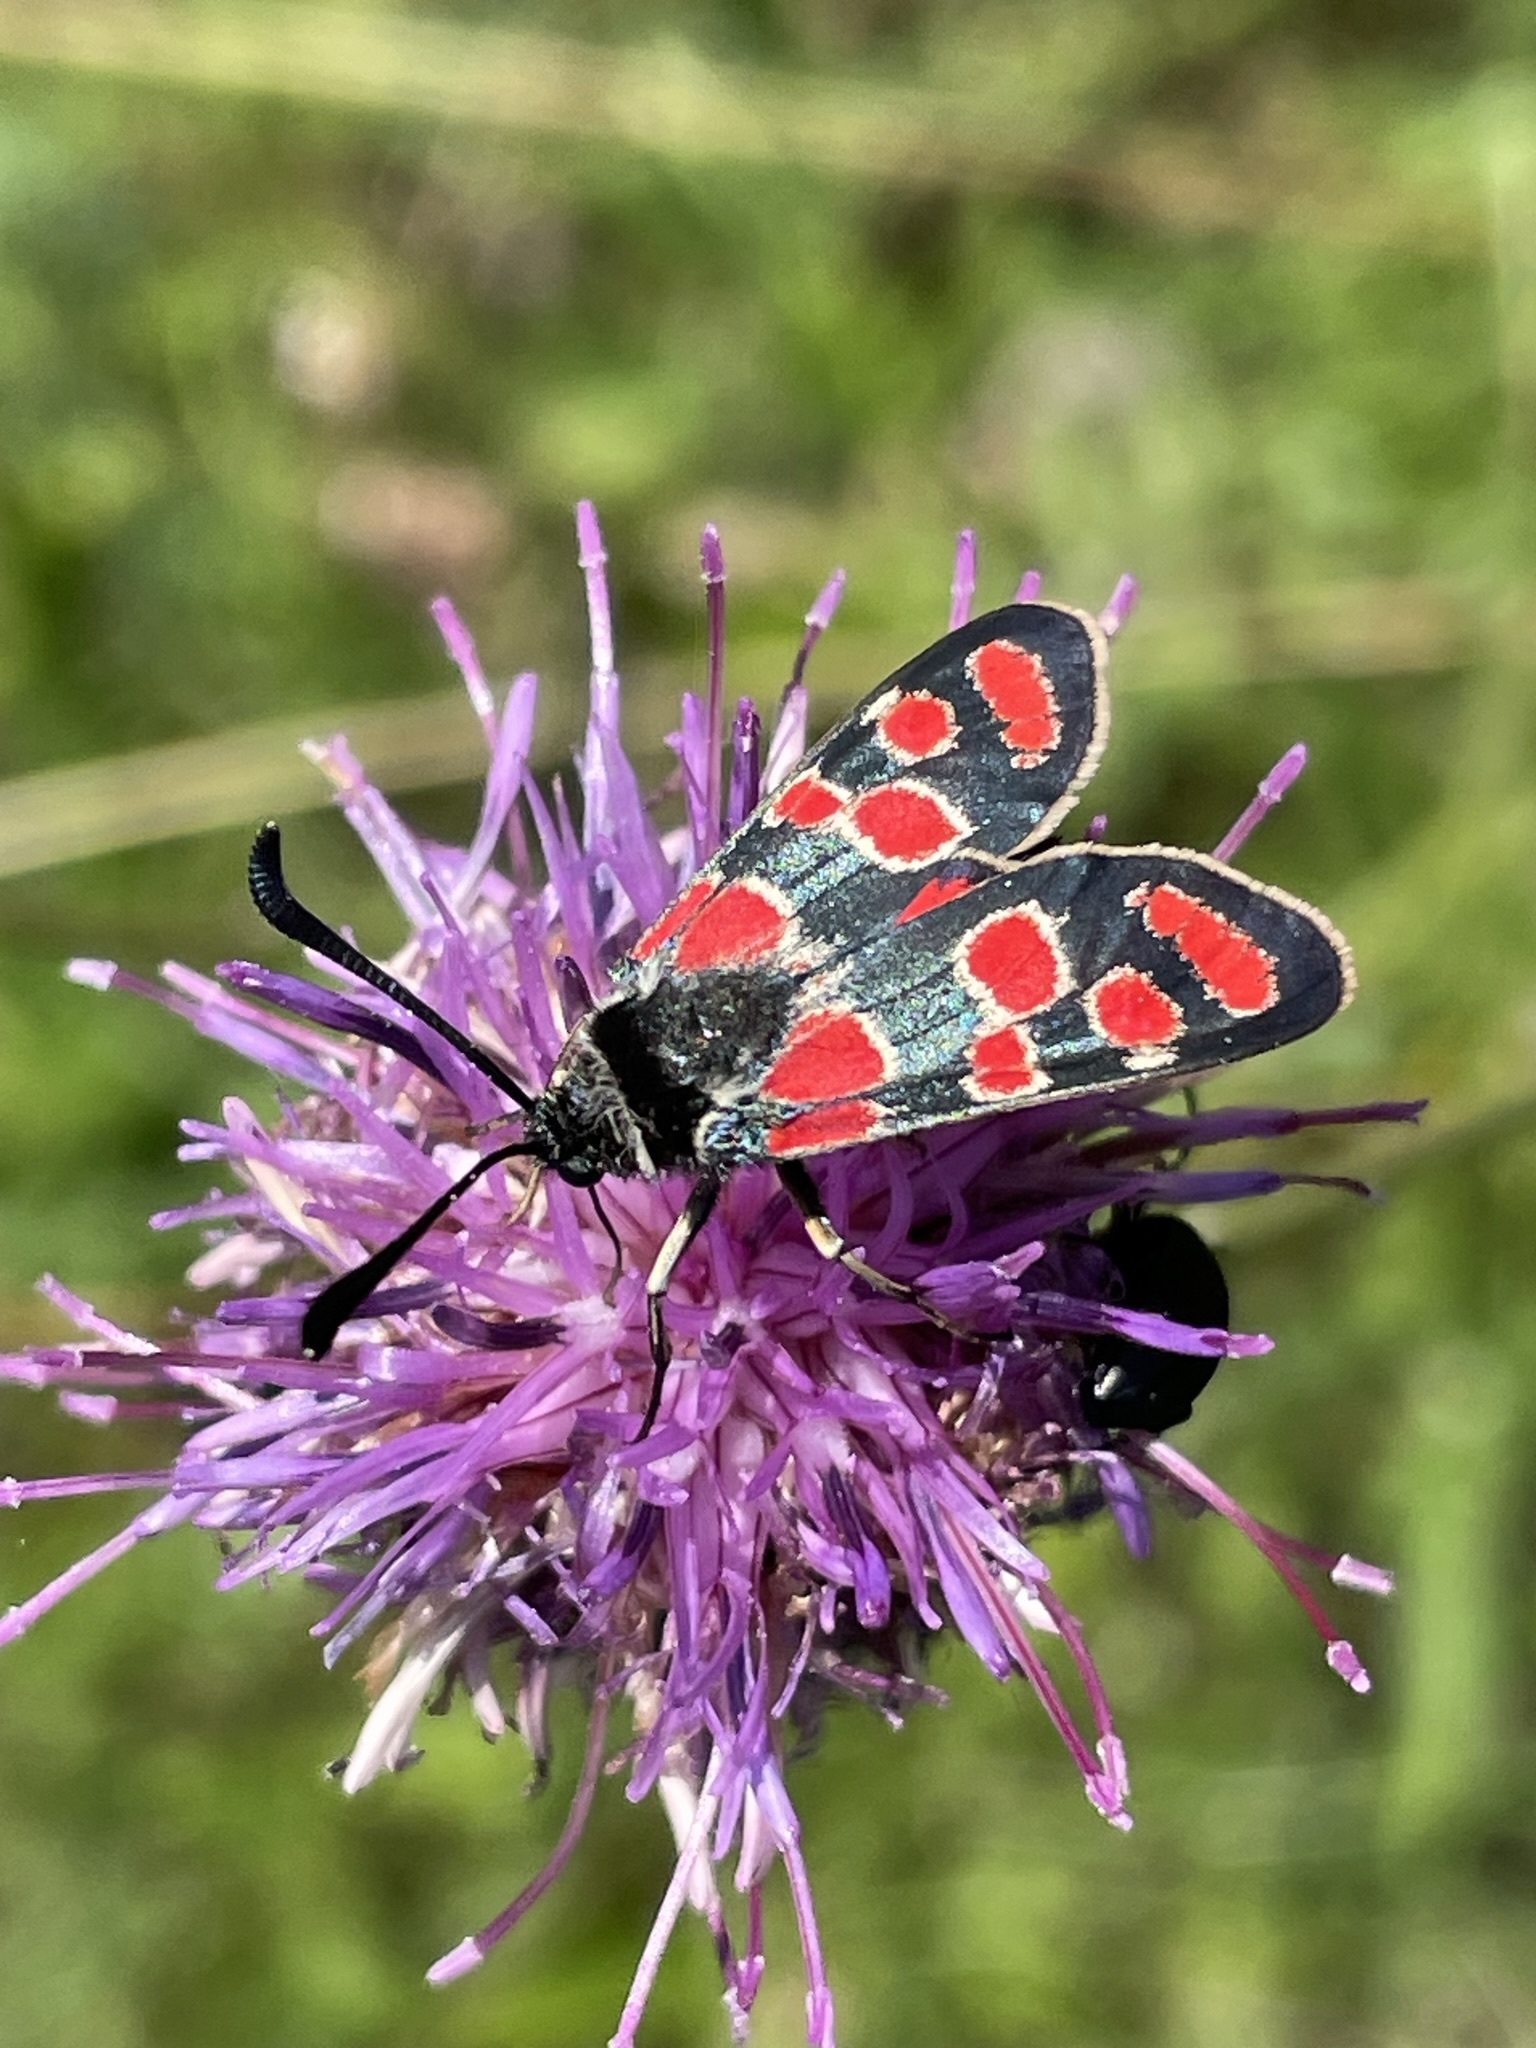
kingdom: Animalia
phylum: Arthropoda
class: Insecta
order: Lepidoptera
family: Zygaenidae
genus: Zygaena
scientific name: Zygaena carniolica
